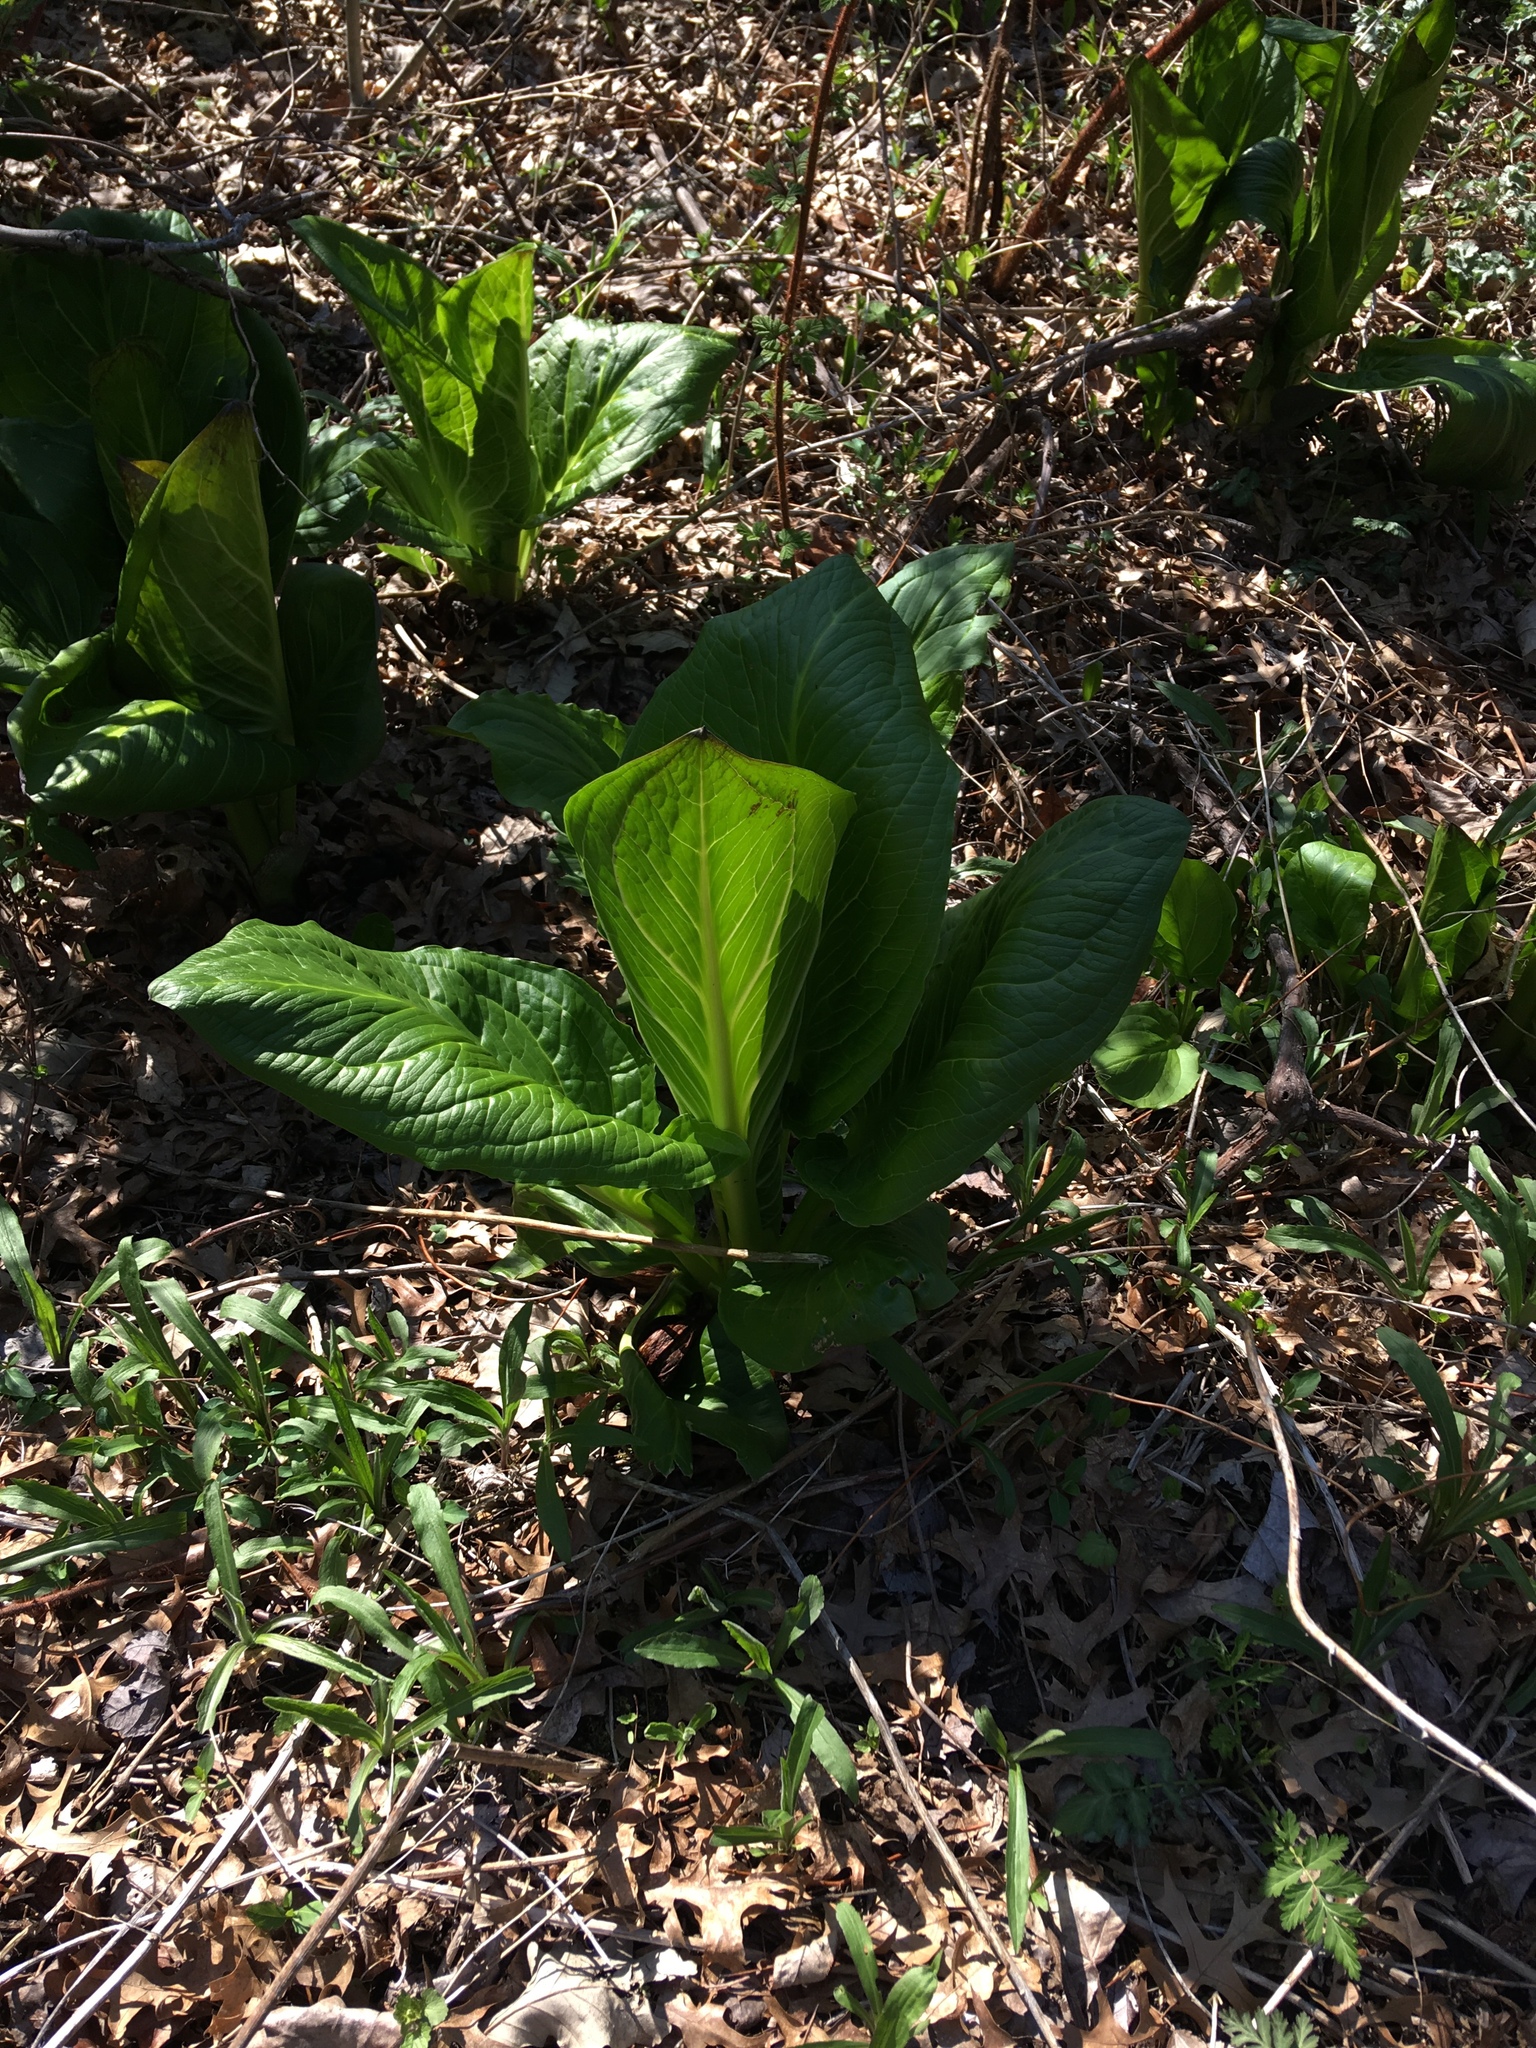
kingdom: Plantae
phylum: Tracheophyta
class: Liliopsida
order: Alismatales
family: Araceae
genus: Symplocarpus
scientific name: Symplocarpus foetidus
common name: Eastern skunk cabbage
